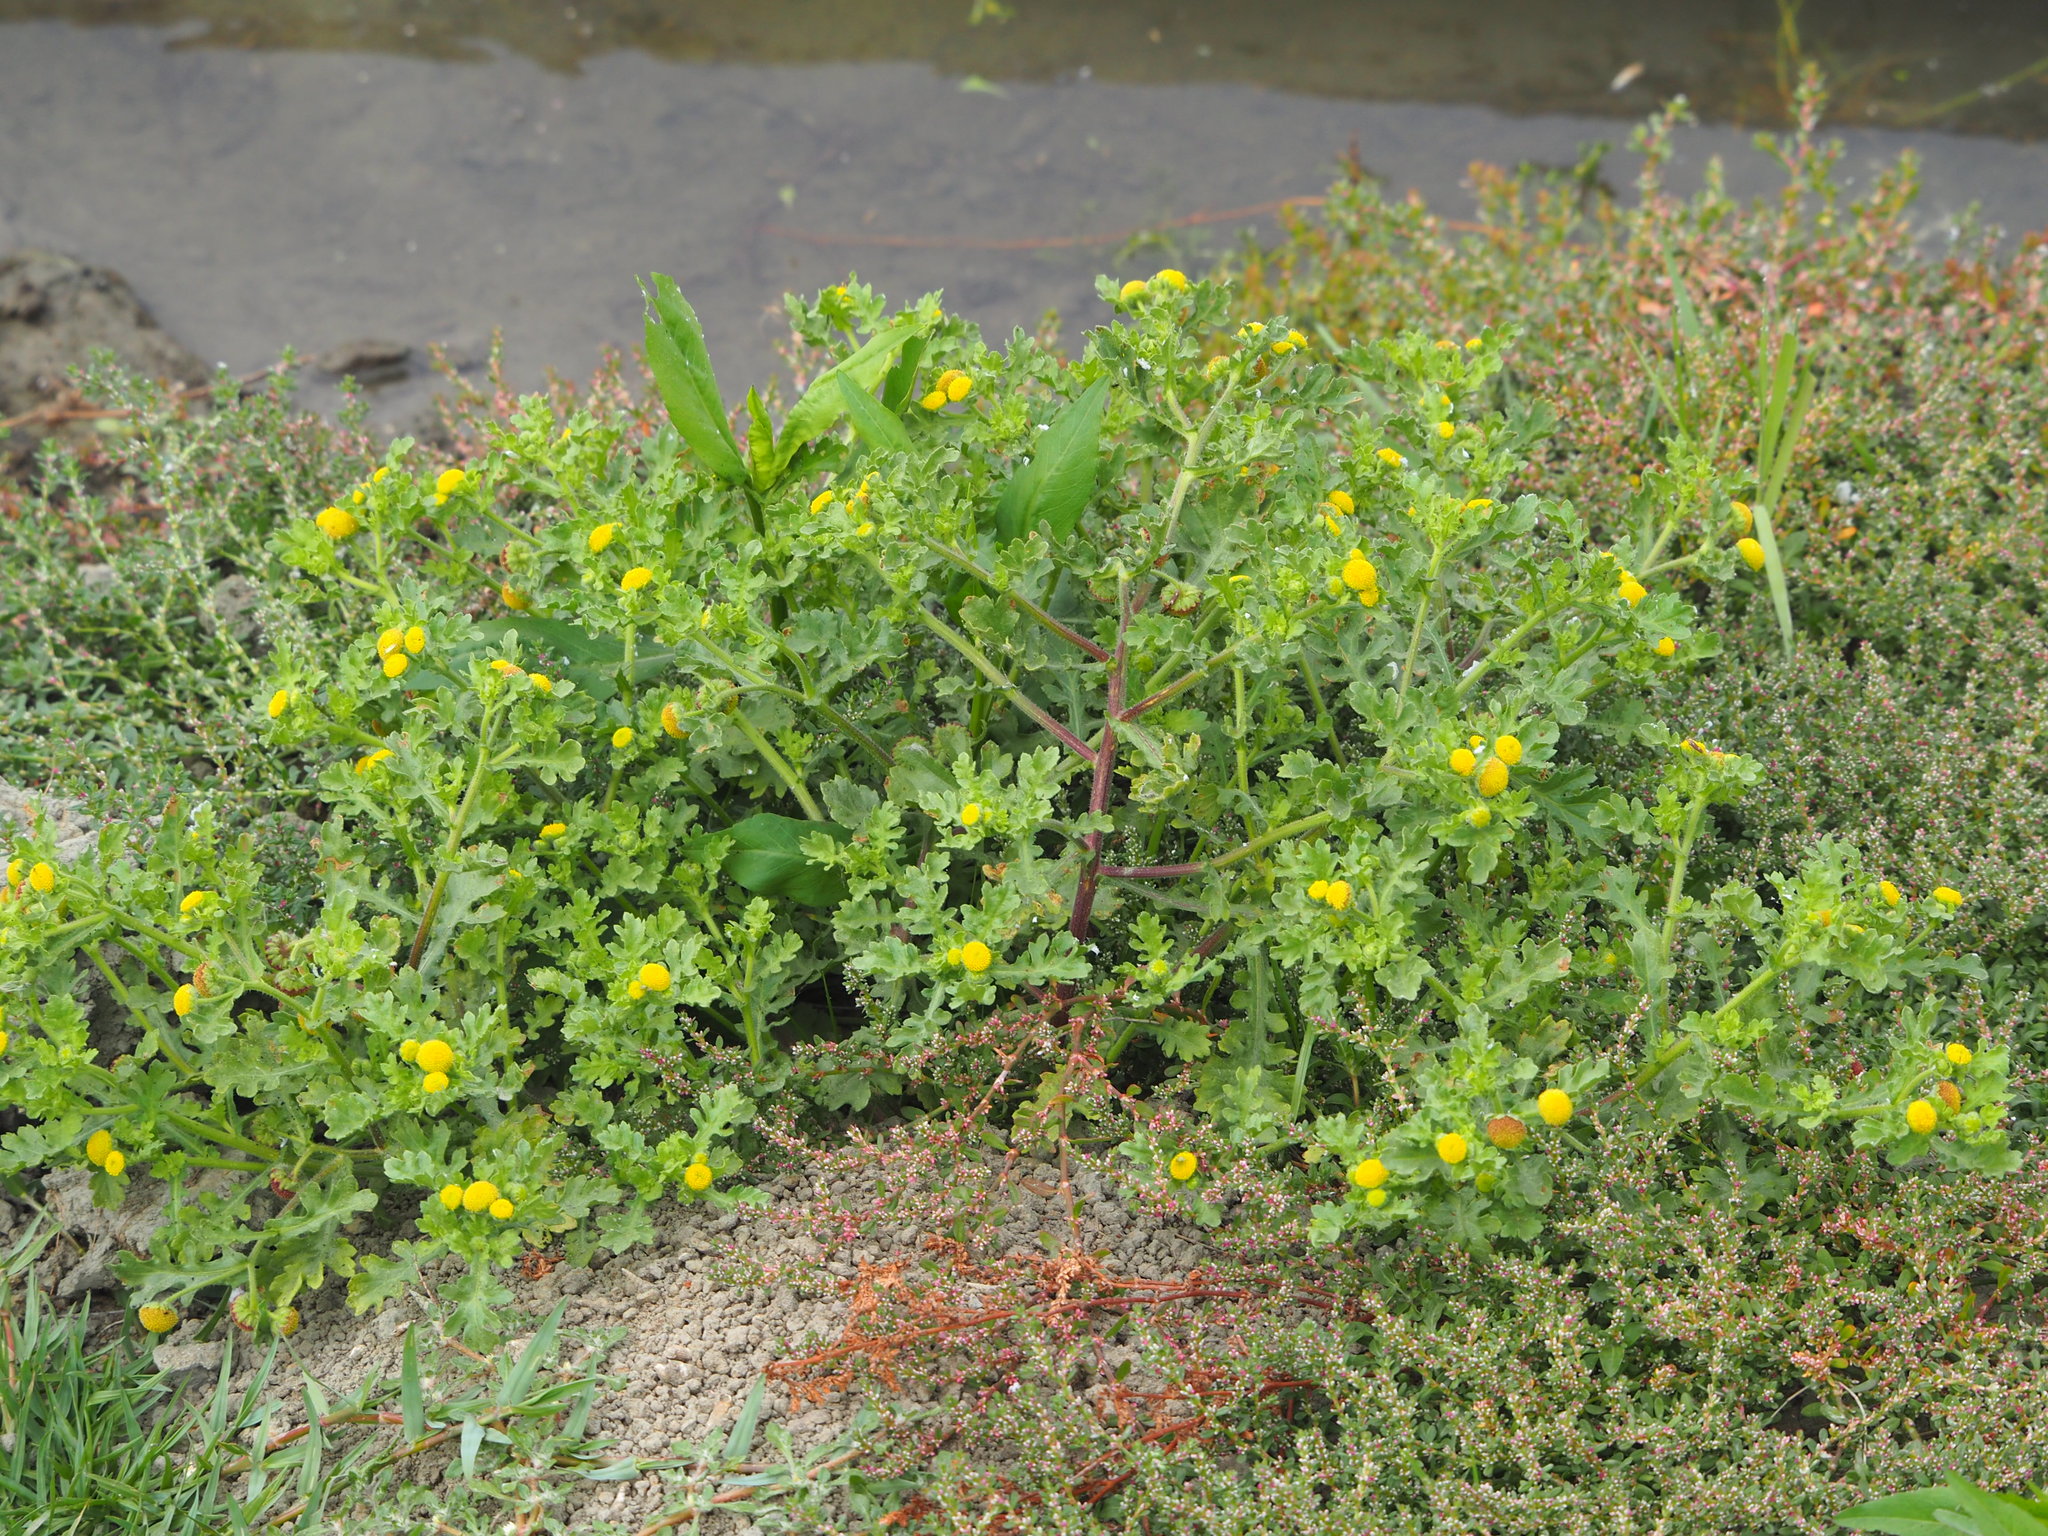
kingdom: Plantae
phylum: Tracheophyta
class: Magnoliopsida
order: Asterales
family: Asteraceae
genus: Grangea
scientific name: Grangea maderaspatana
